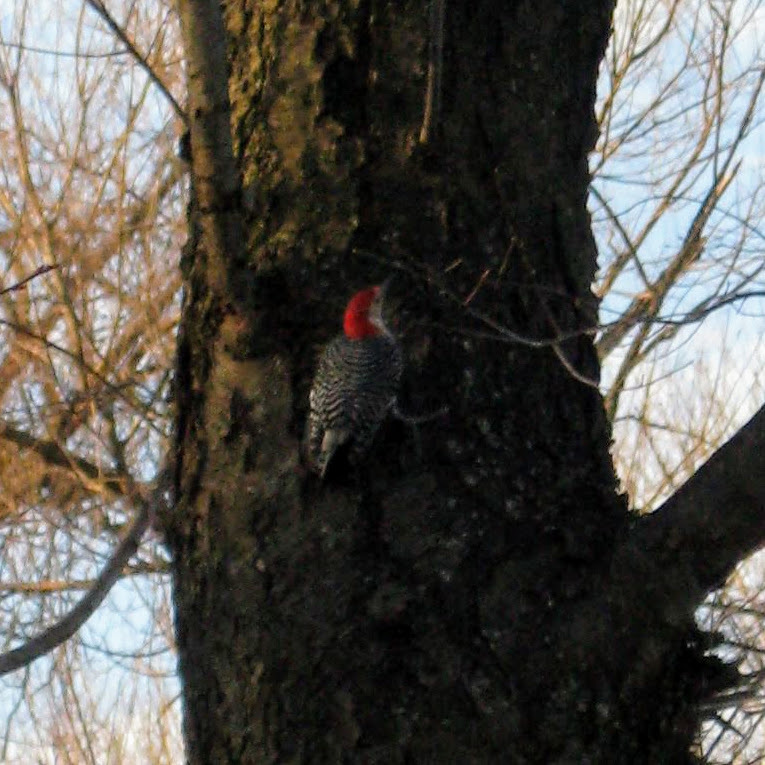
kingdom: Animalia
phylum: Chordata
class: Aves
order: Piciformes
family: Picidae
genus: Melanerpes
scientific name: Melanerpes carolinus
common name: Red-bellied woodpecker
